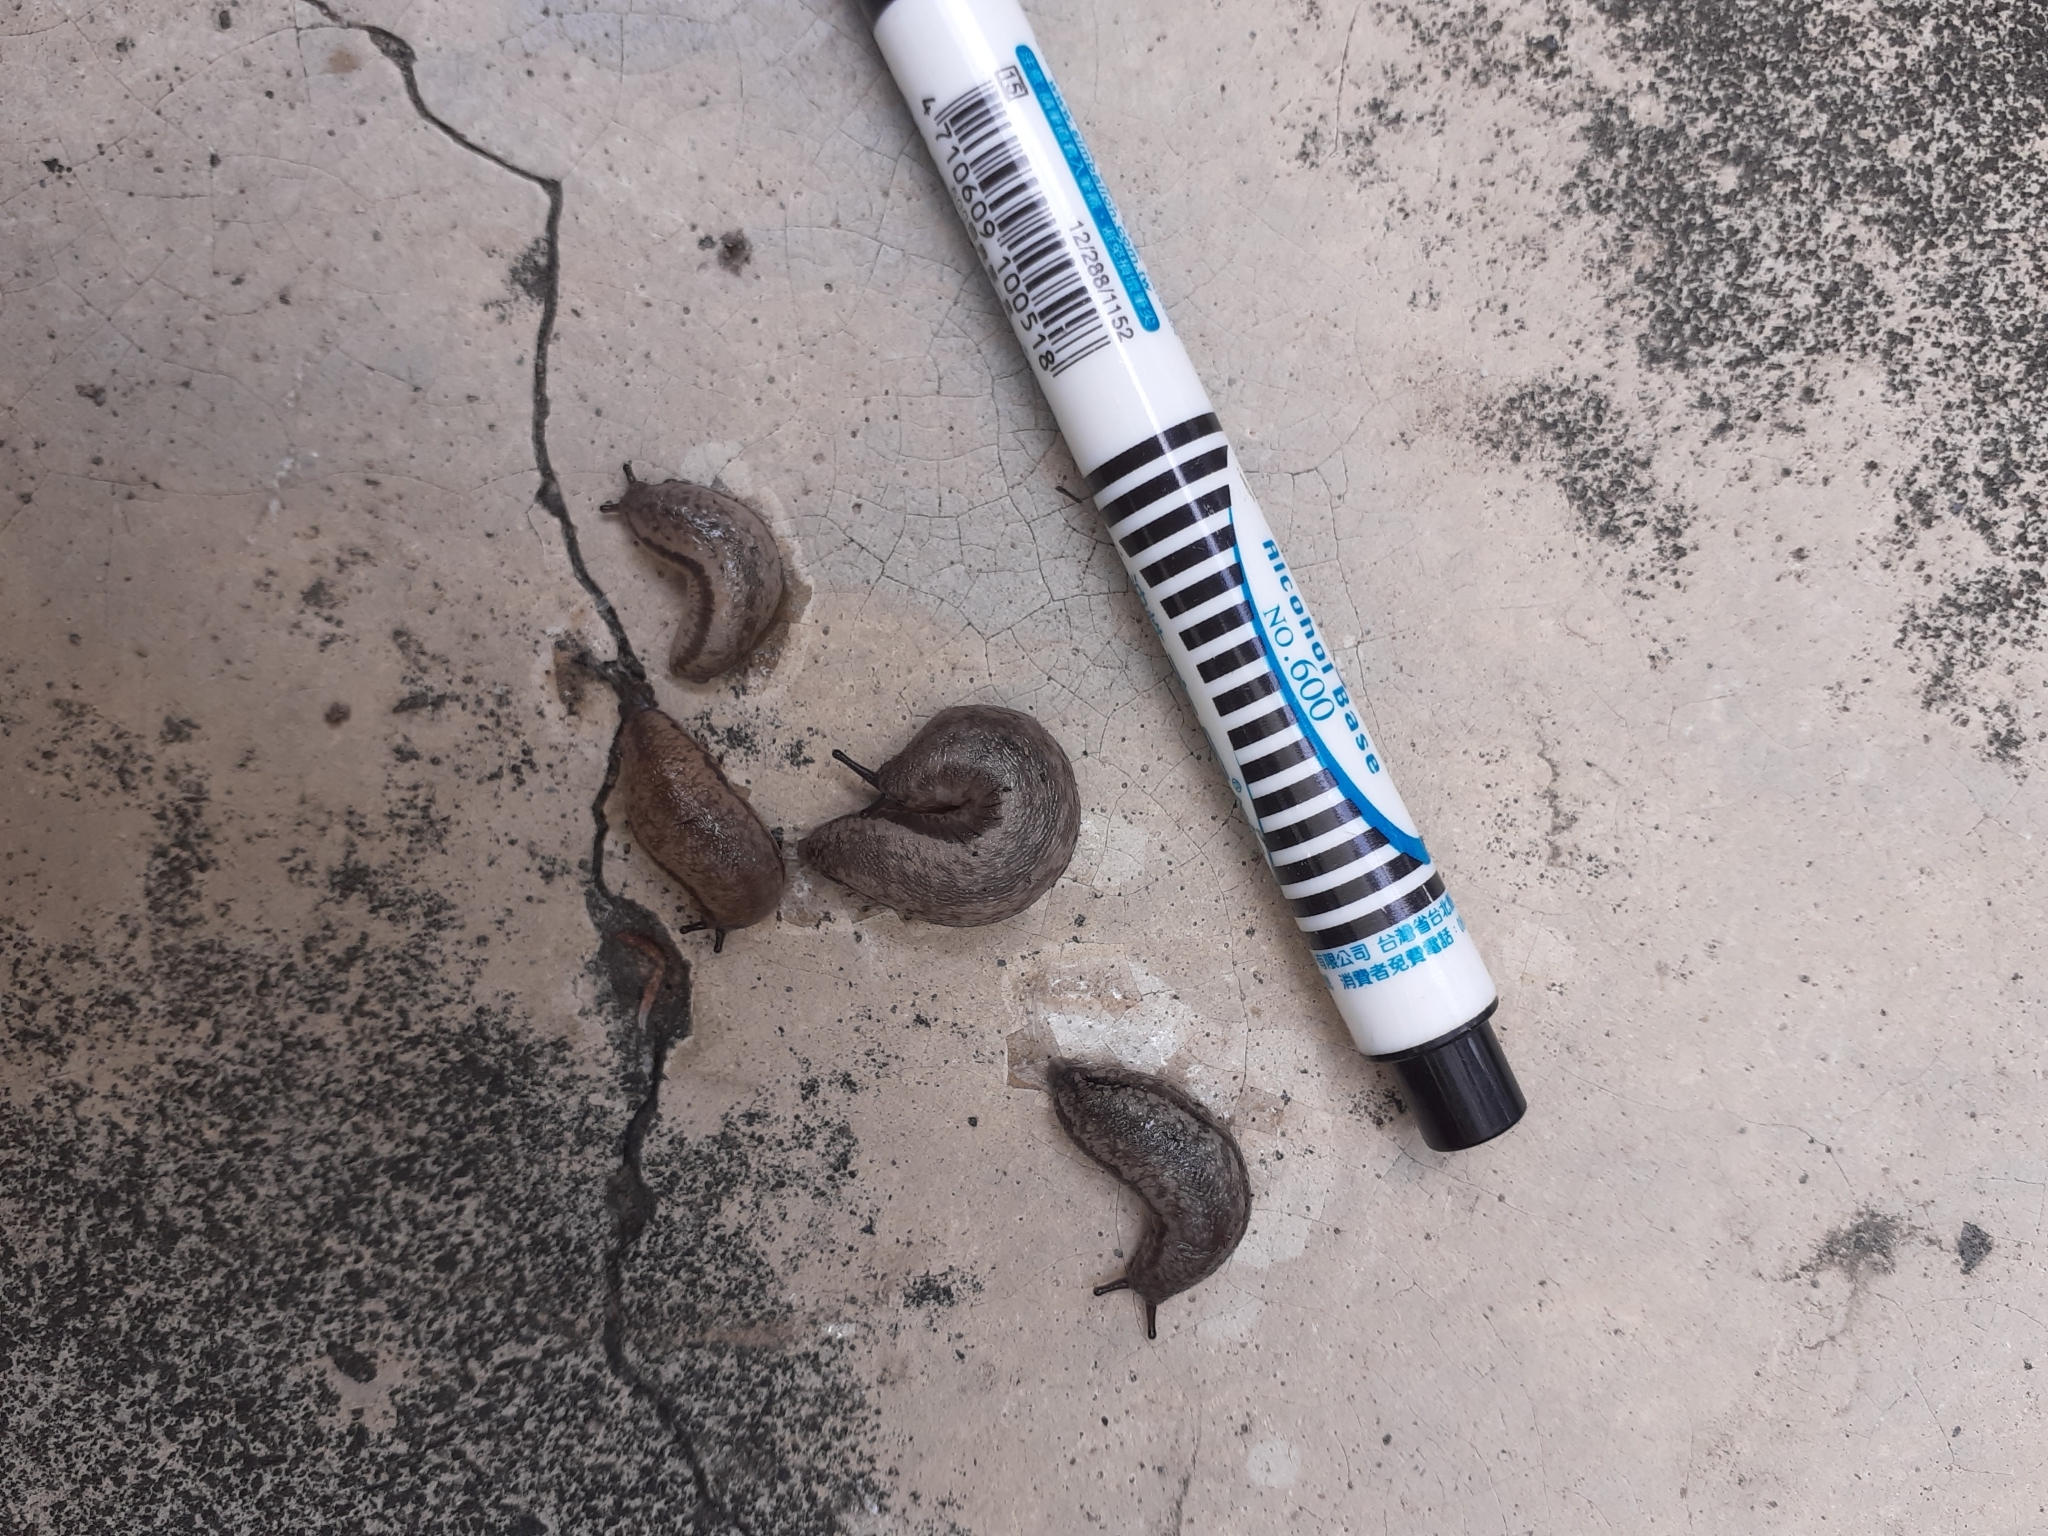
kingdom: Animalia
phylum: Mollusca
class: Gastropoda
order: Stylommatophora
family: Philomycidae
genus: Meghimatium
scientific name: Meghimatium bilineatum
